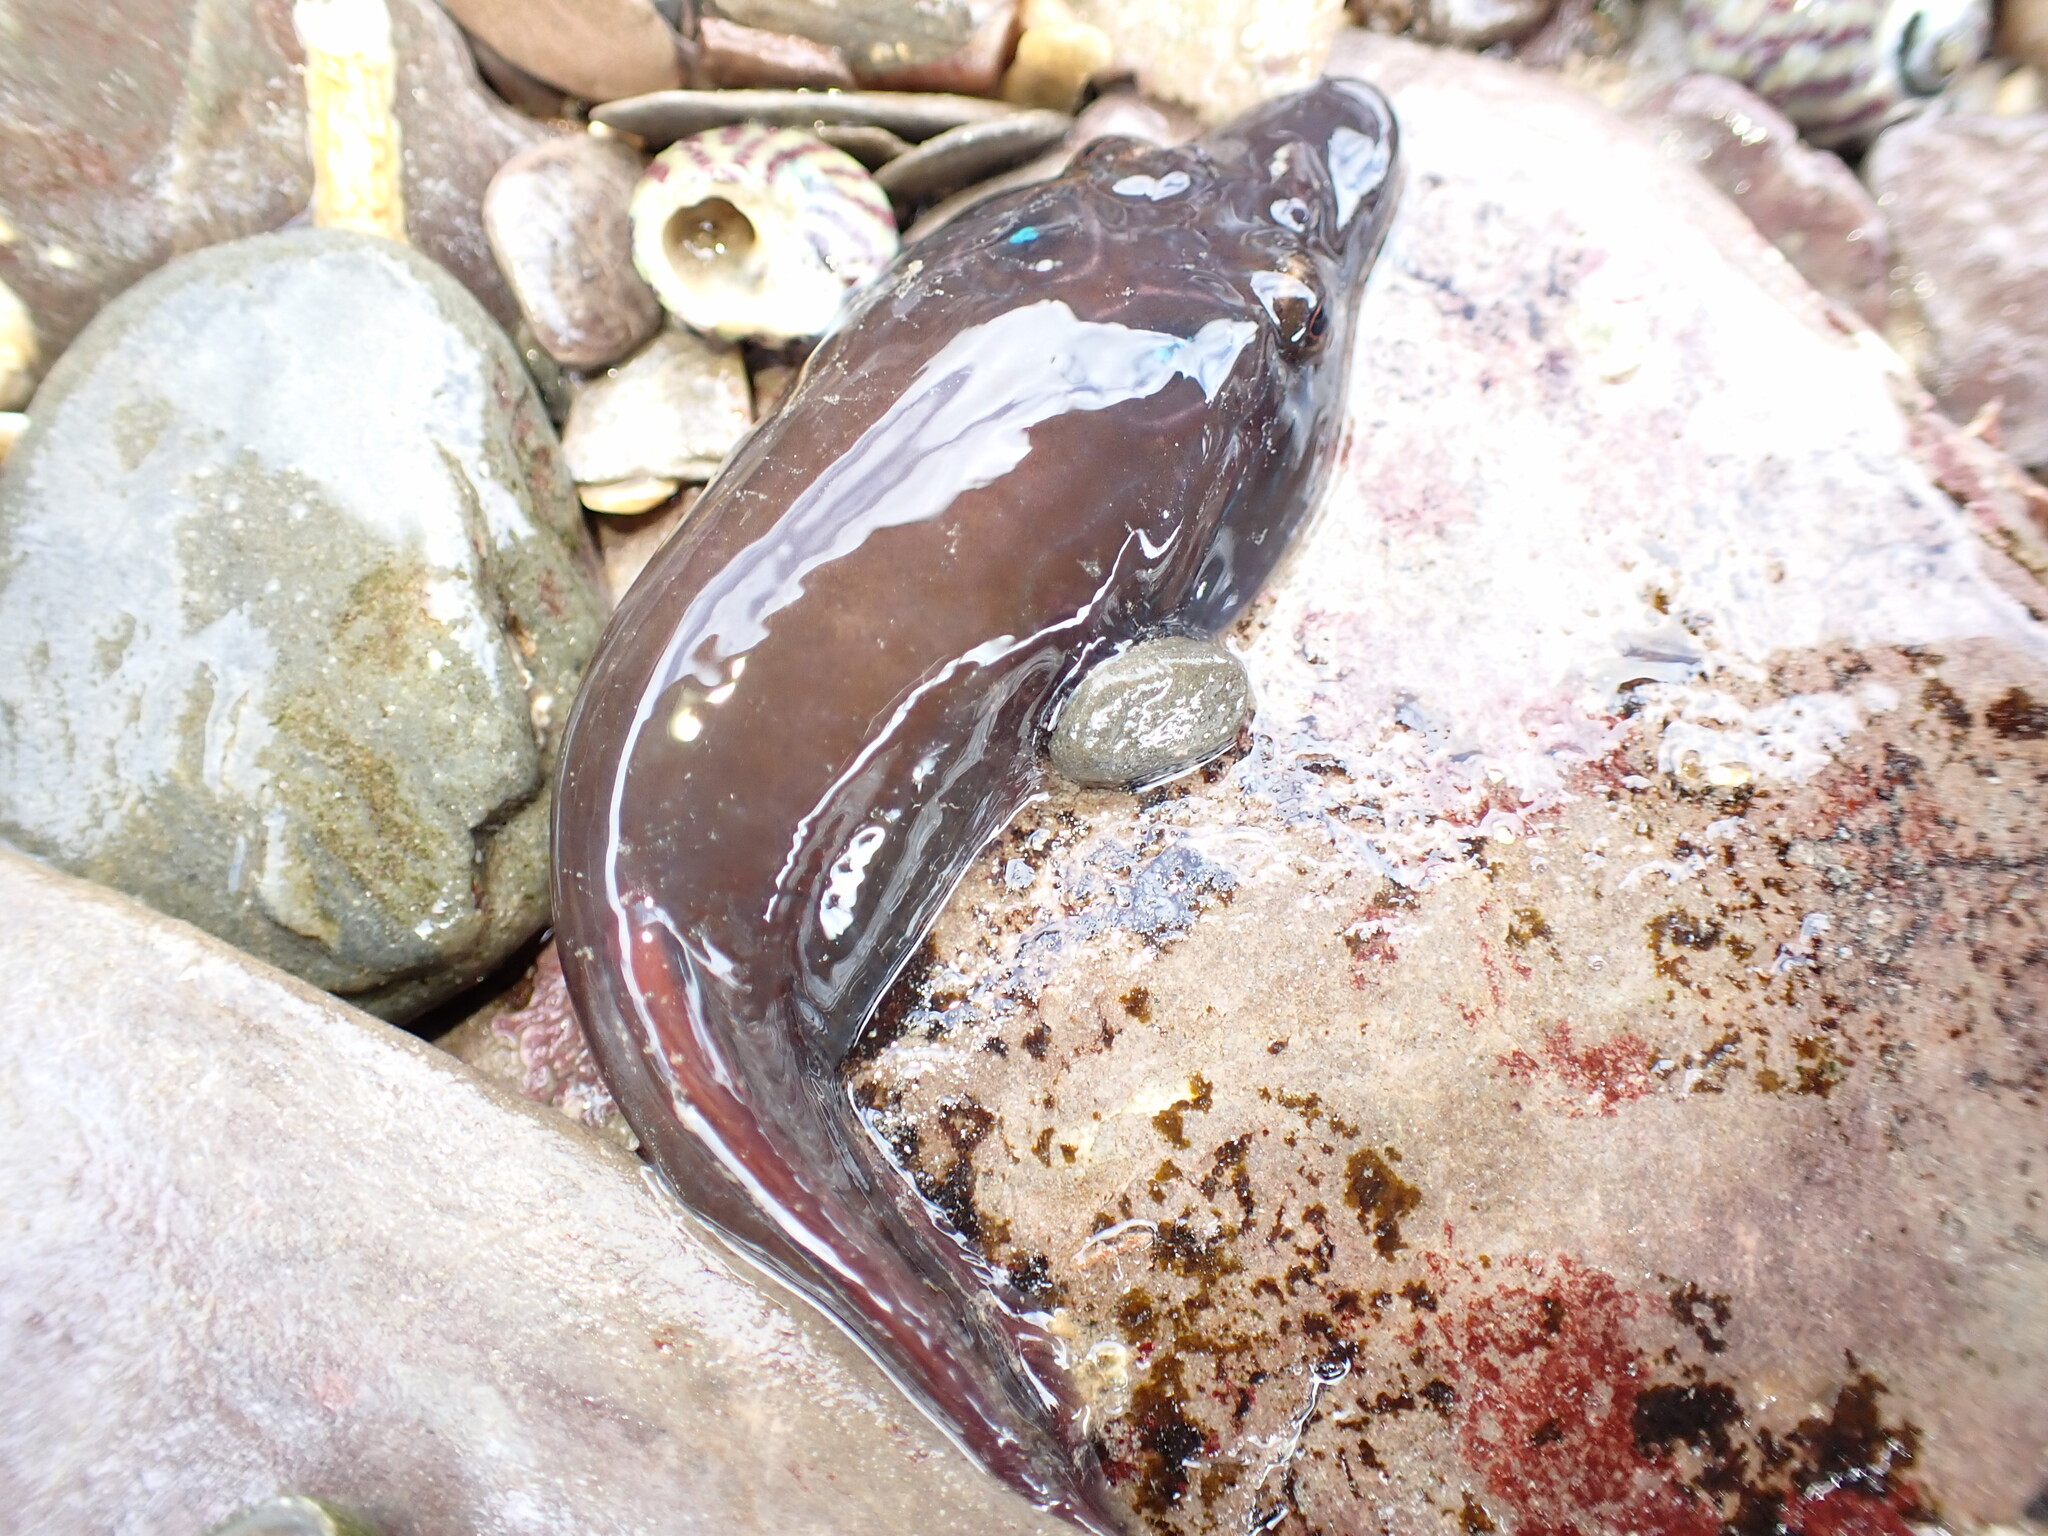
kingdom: Animalia
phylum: Chordata
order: Gobiesociformes
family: Gobiesocidae
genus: Lepadogaster
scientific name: Lepadogaster purpurea
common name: Cornish sucker
